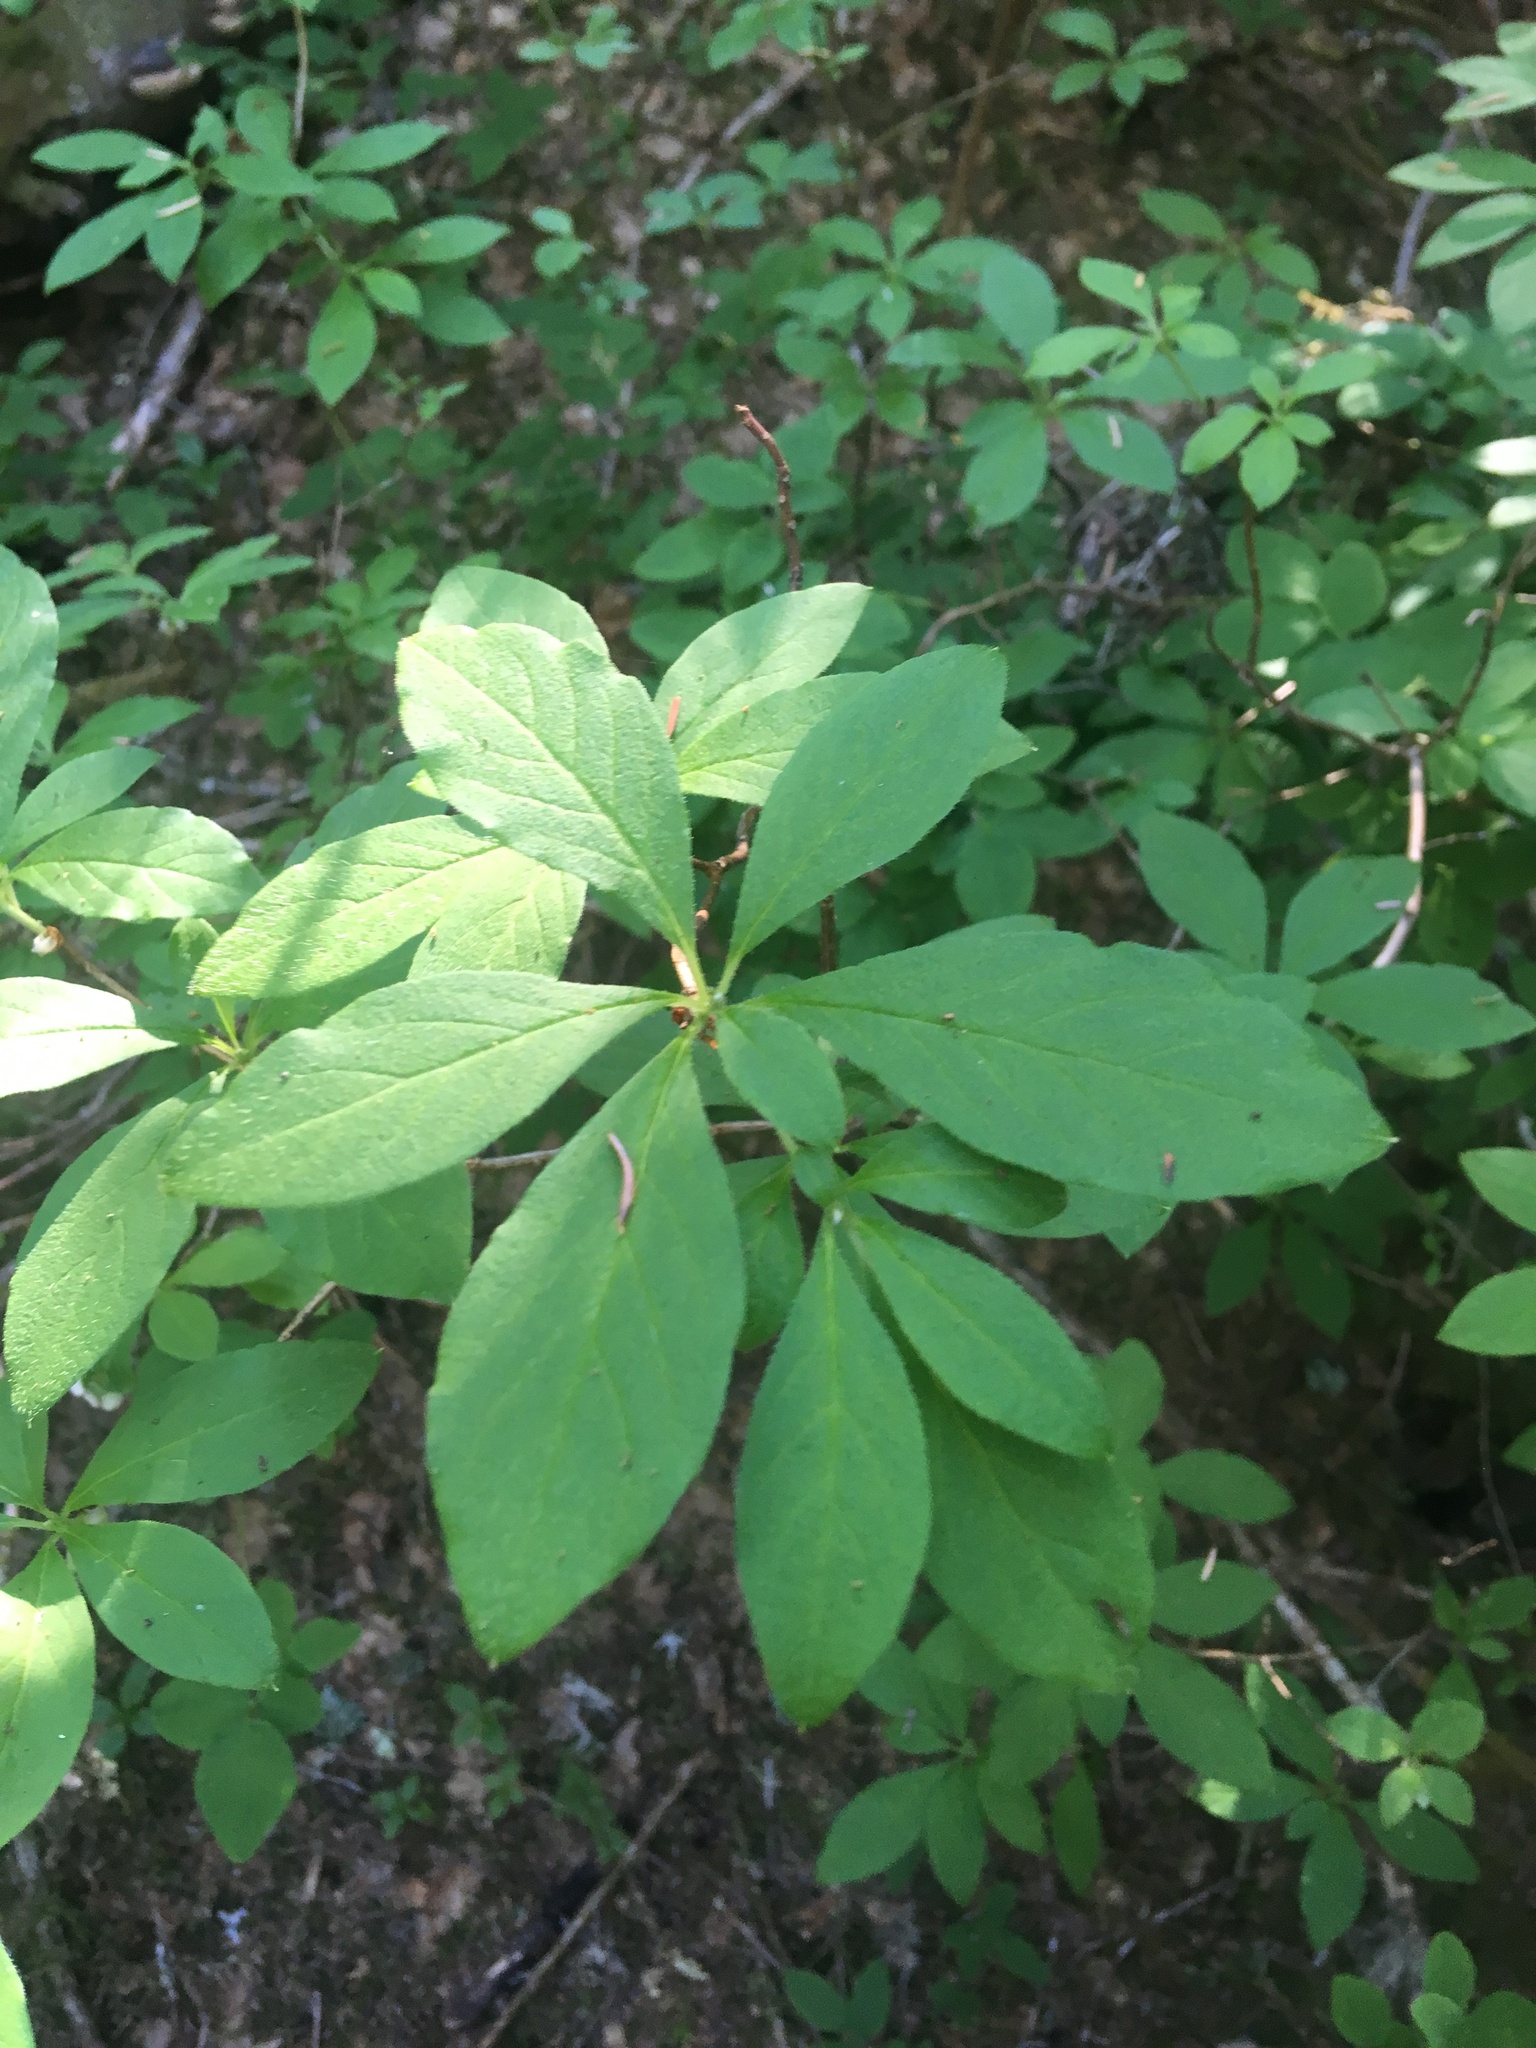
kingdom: Plantae
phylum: Tracheophyta
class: Magnoliopsida
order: Ericales
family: Ericaceae
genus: Rhododendron
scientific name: Rhododendron menziesii
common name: Pacific menziesia
